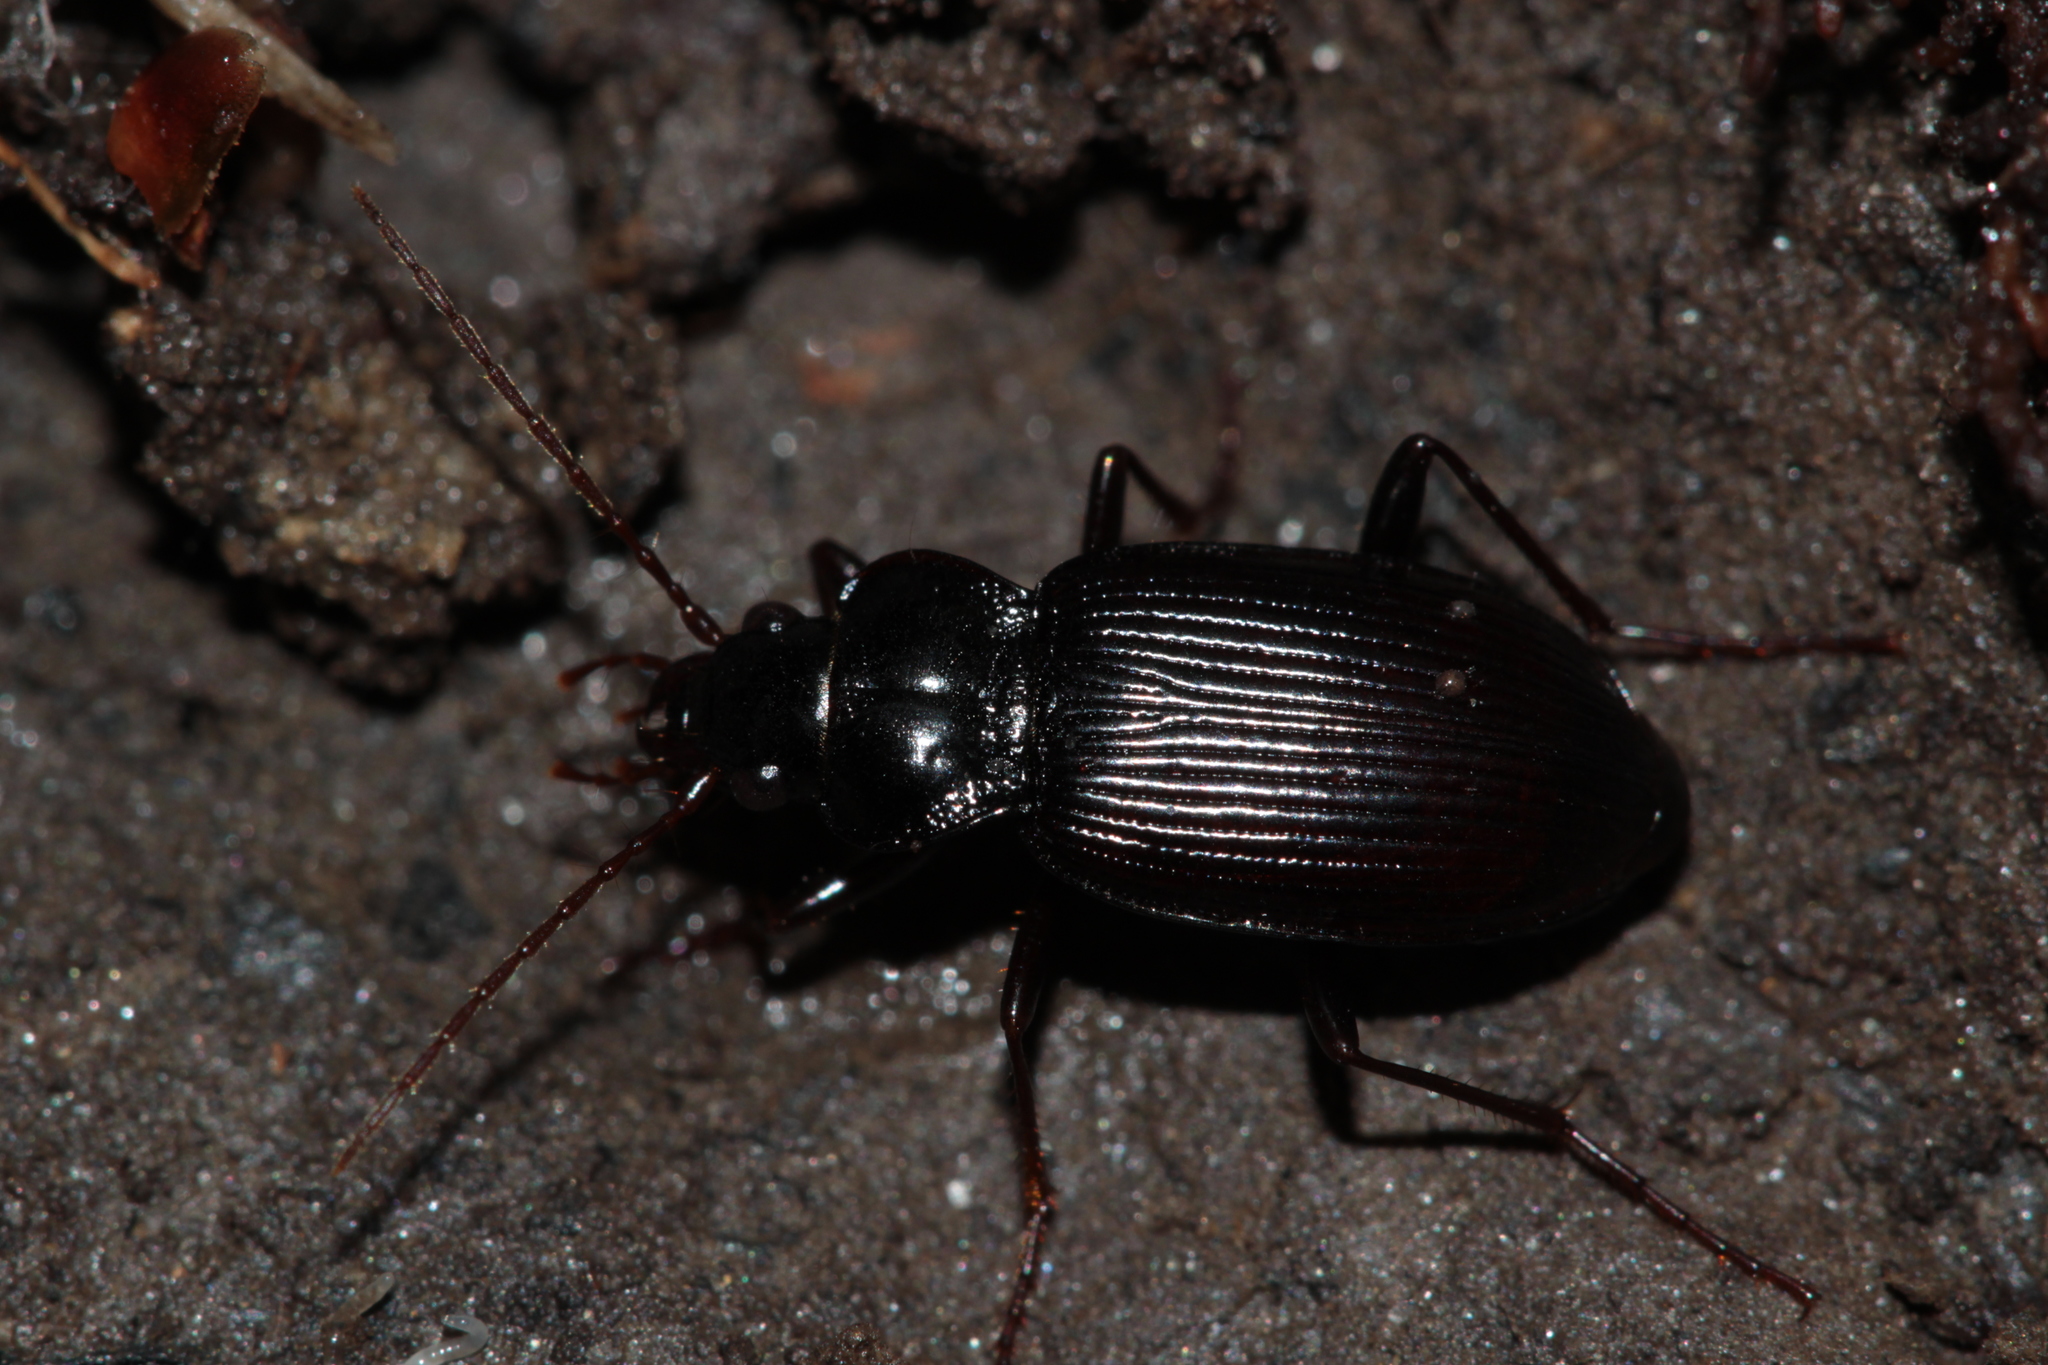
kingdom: Animalia
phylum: Arthropoda
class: Insecta
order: Coleoptera
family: Carabidae
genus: Nebria
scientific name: Nebria brevicollis
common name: Short-necked gazelle beetle
